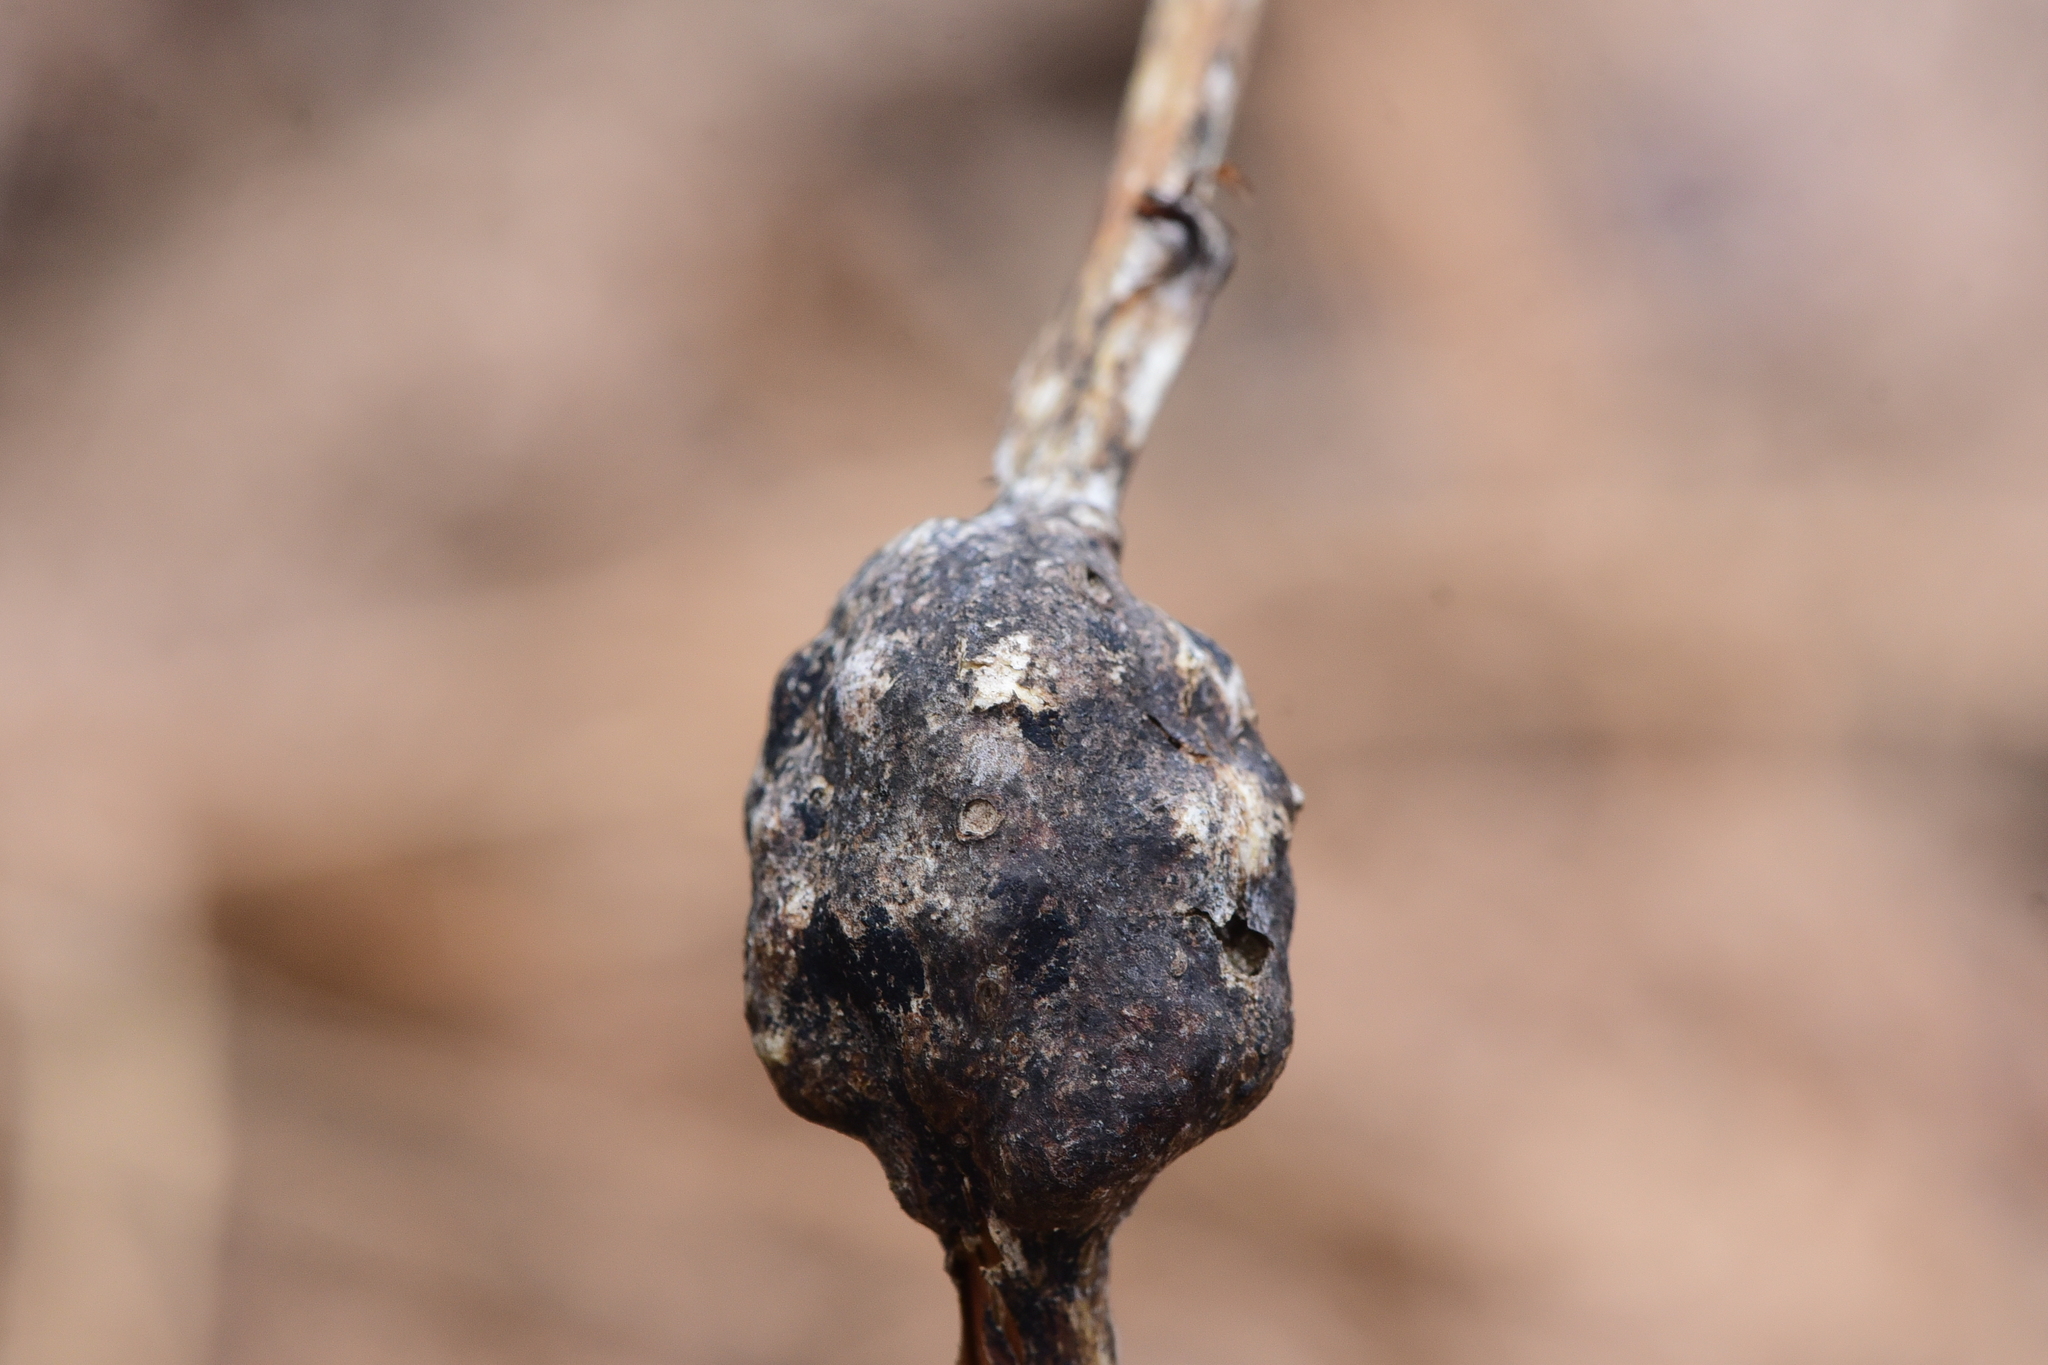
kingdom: Animalia
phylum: Arthropoda
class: Insecta
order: Hymenoptera
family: Cynipidae
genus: Diastrophus
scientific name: Diastrophus
